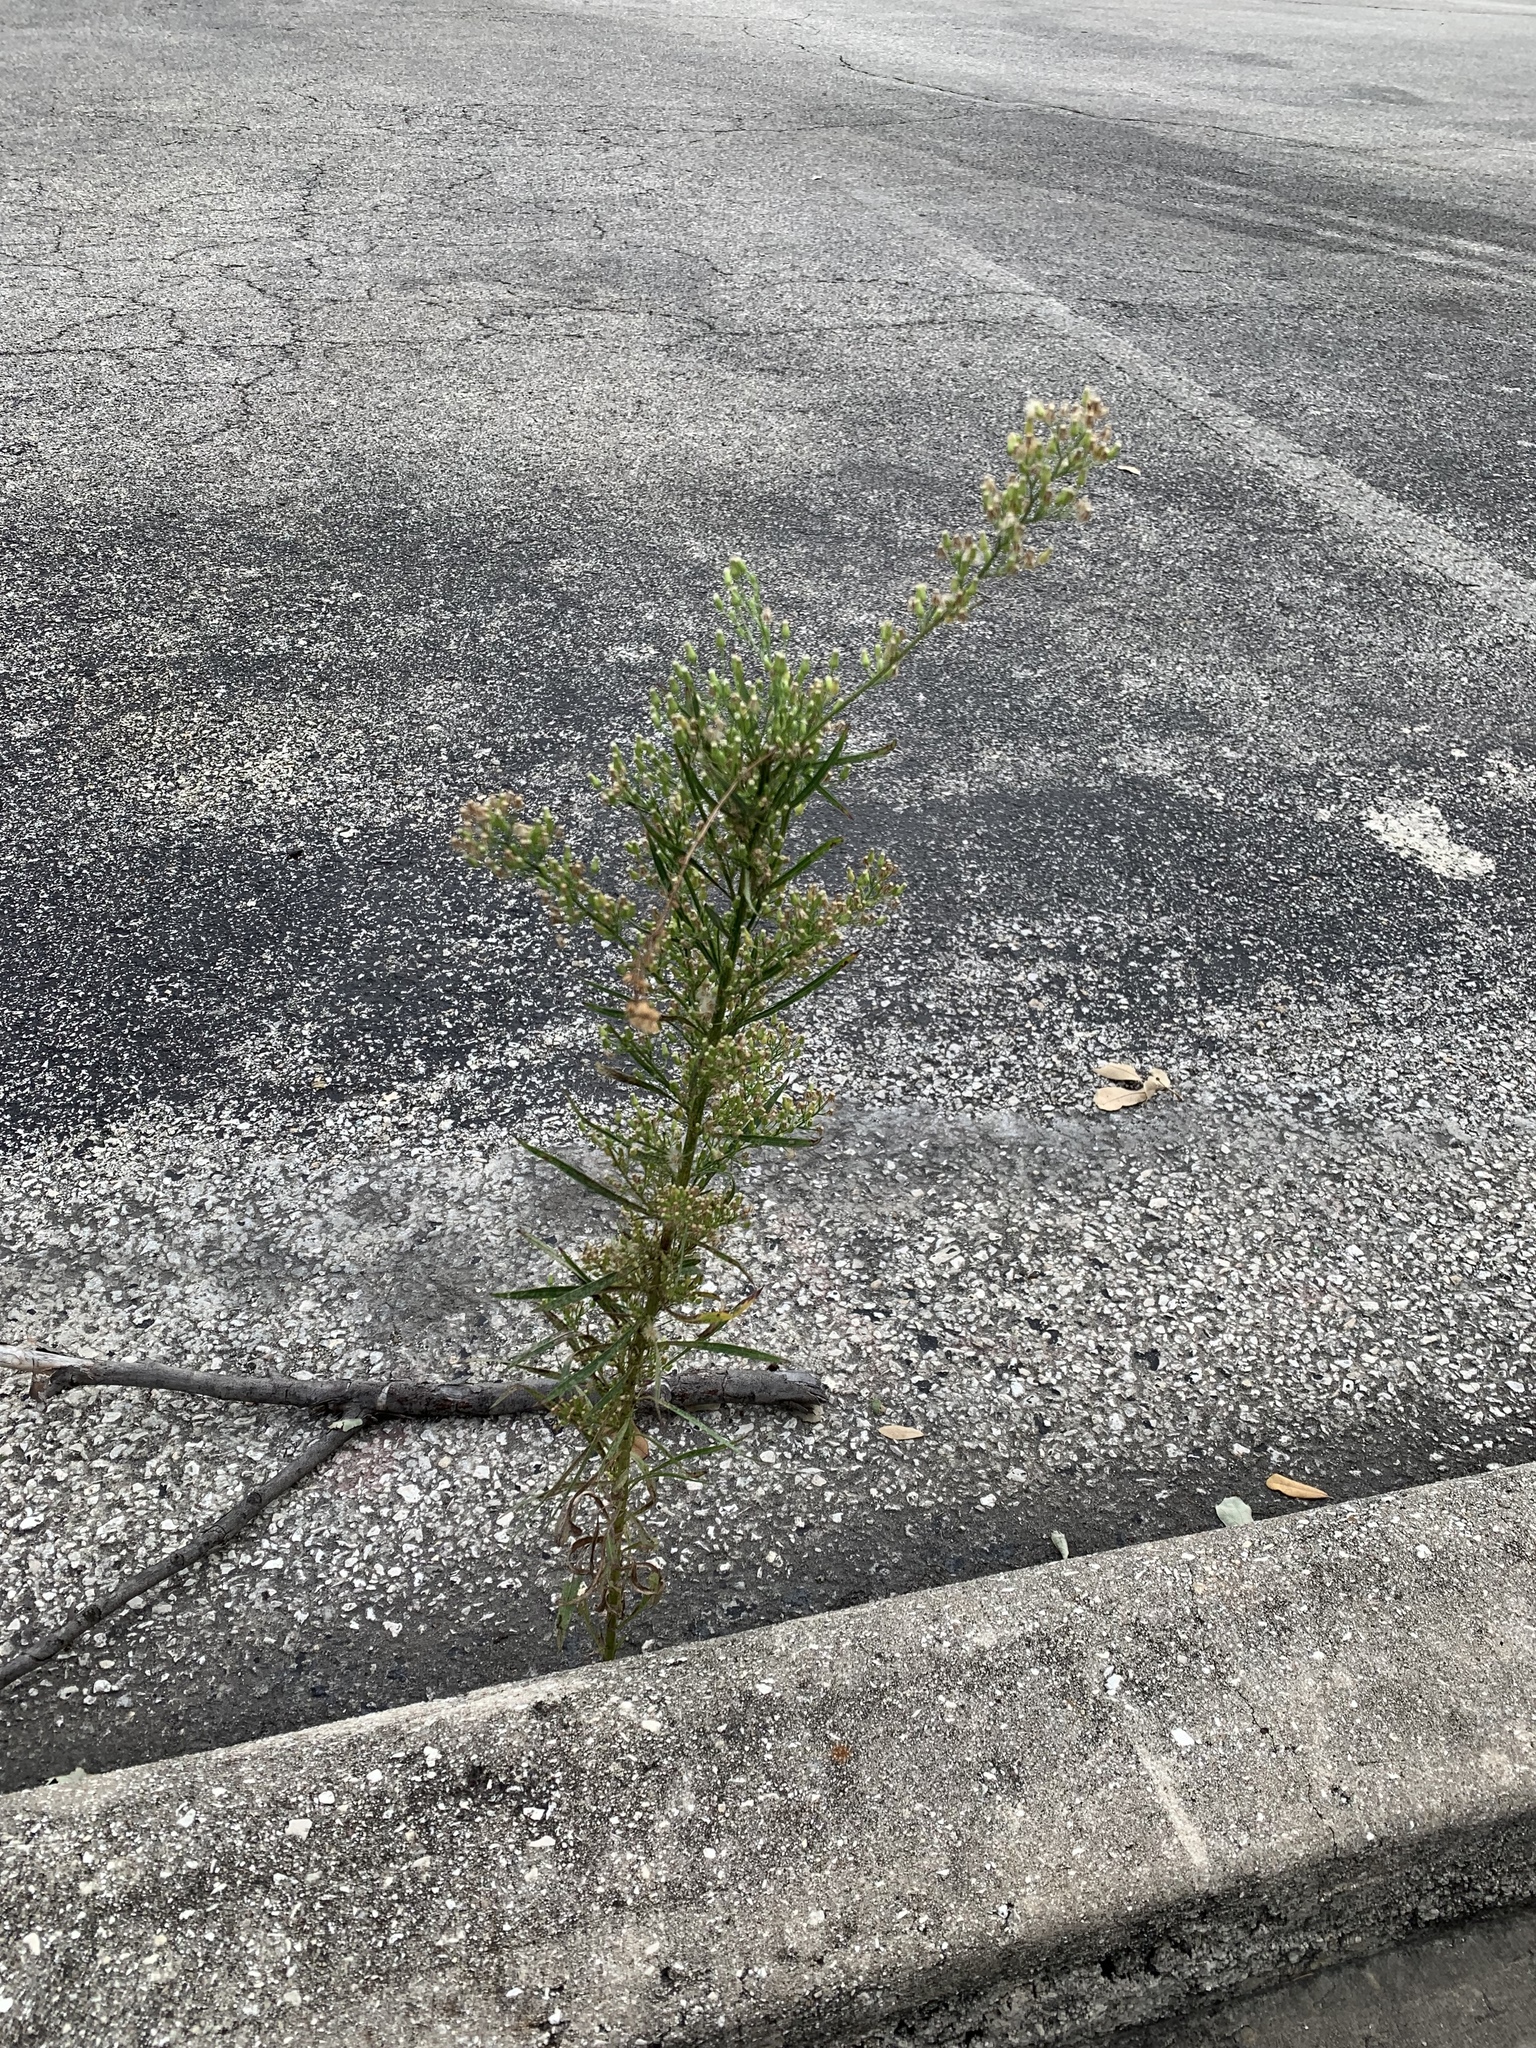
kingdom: Plantae
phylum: Tracheophyta
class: Magnoliopsida
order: Asterales
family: Asteraceae
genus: Erigeron
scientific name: Erigeron canadensis
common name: Canadian fleabane
